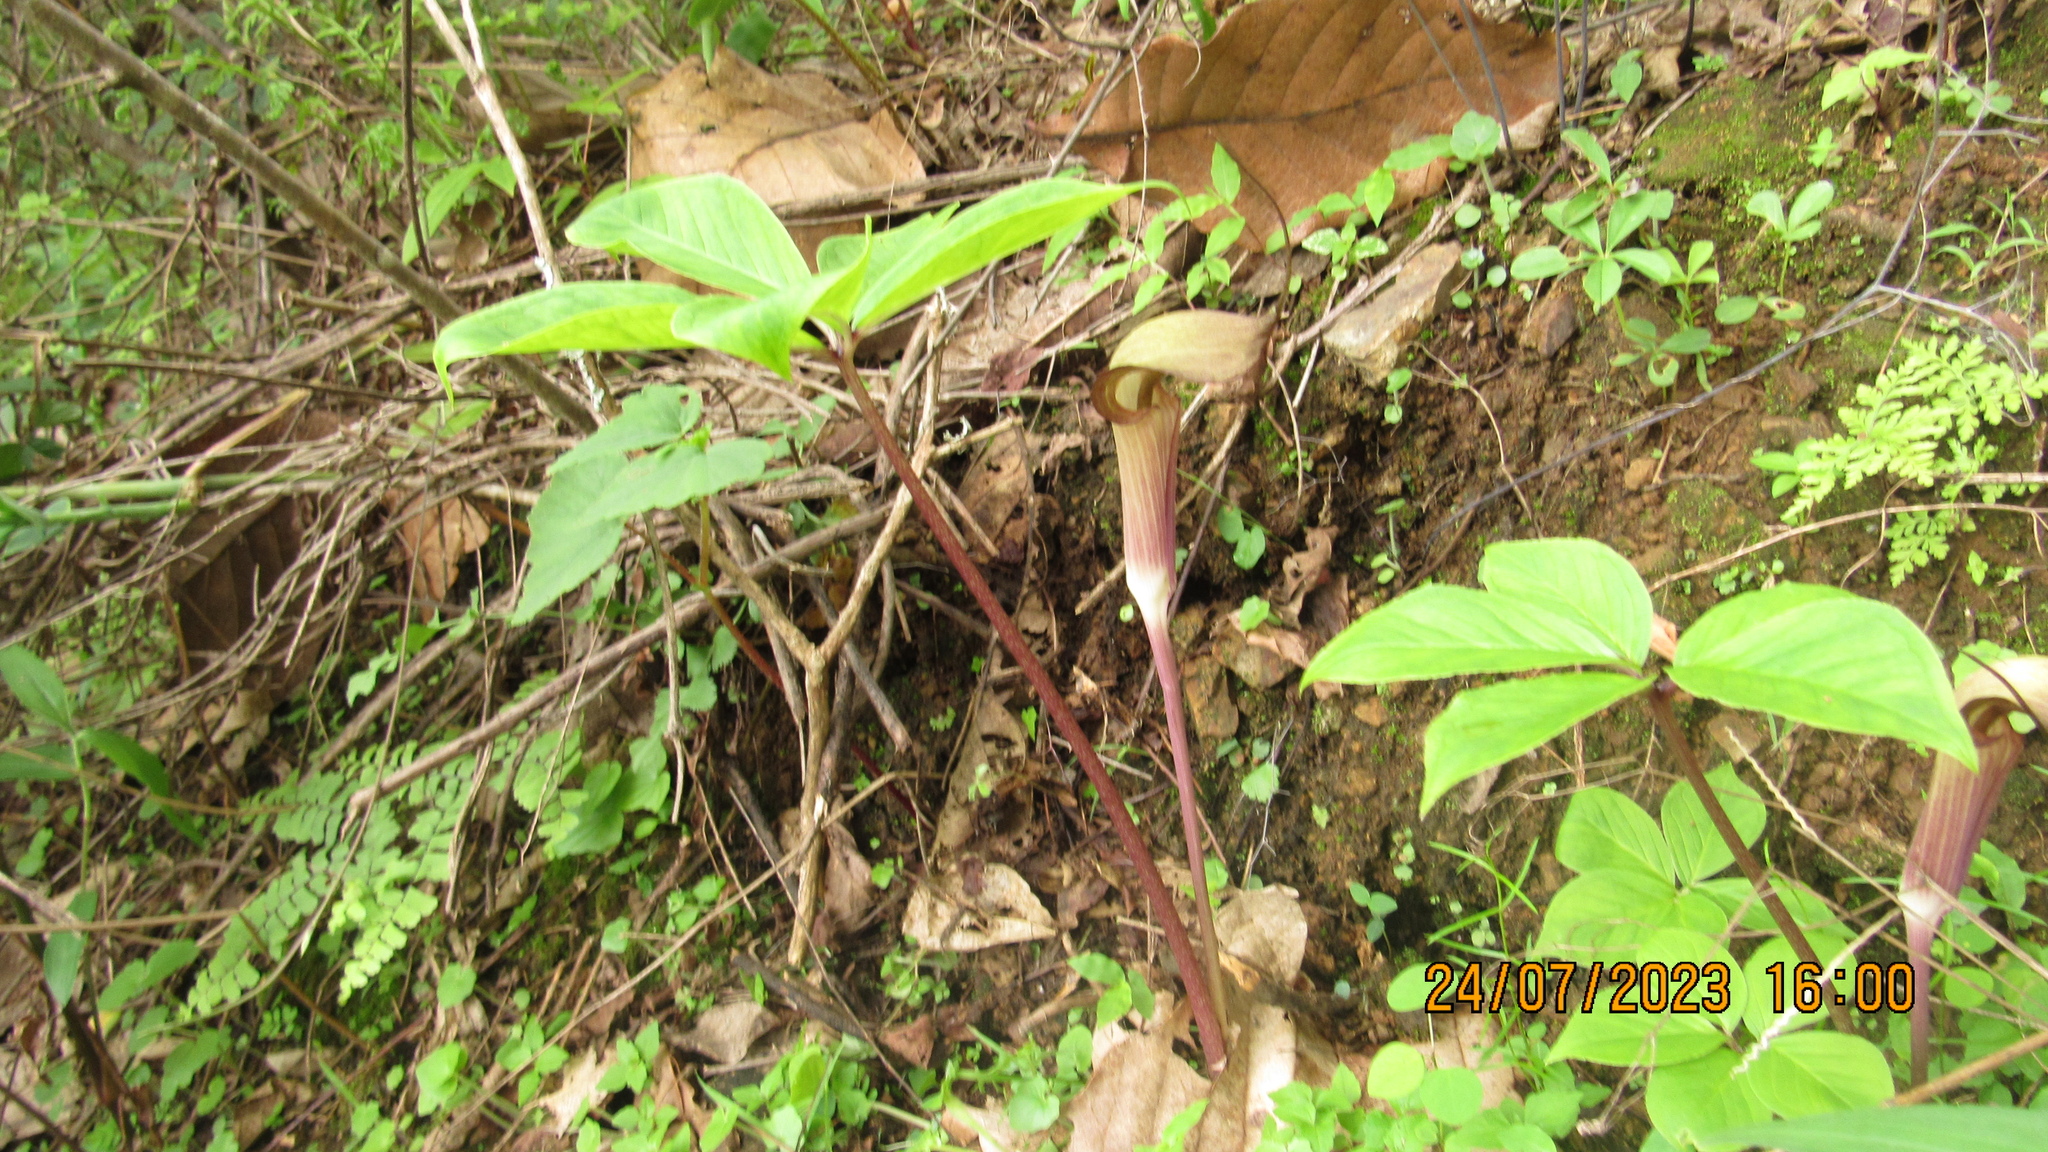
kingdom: Plantae
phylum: Tracheophyta
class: Liliopsida
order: Alismatales
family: Araceae
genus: Arisaema
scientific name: Arisaema macrospathum
